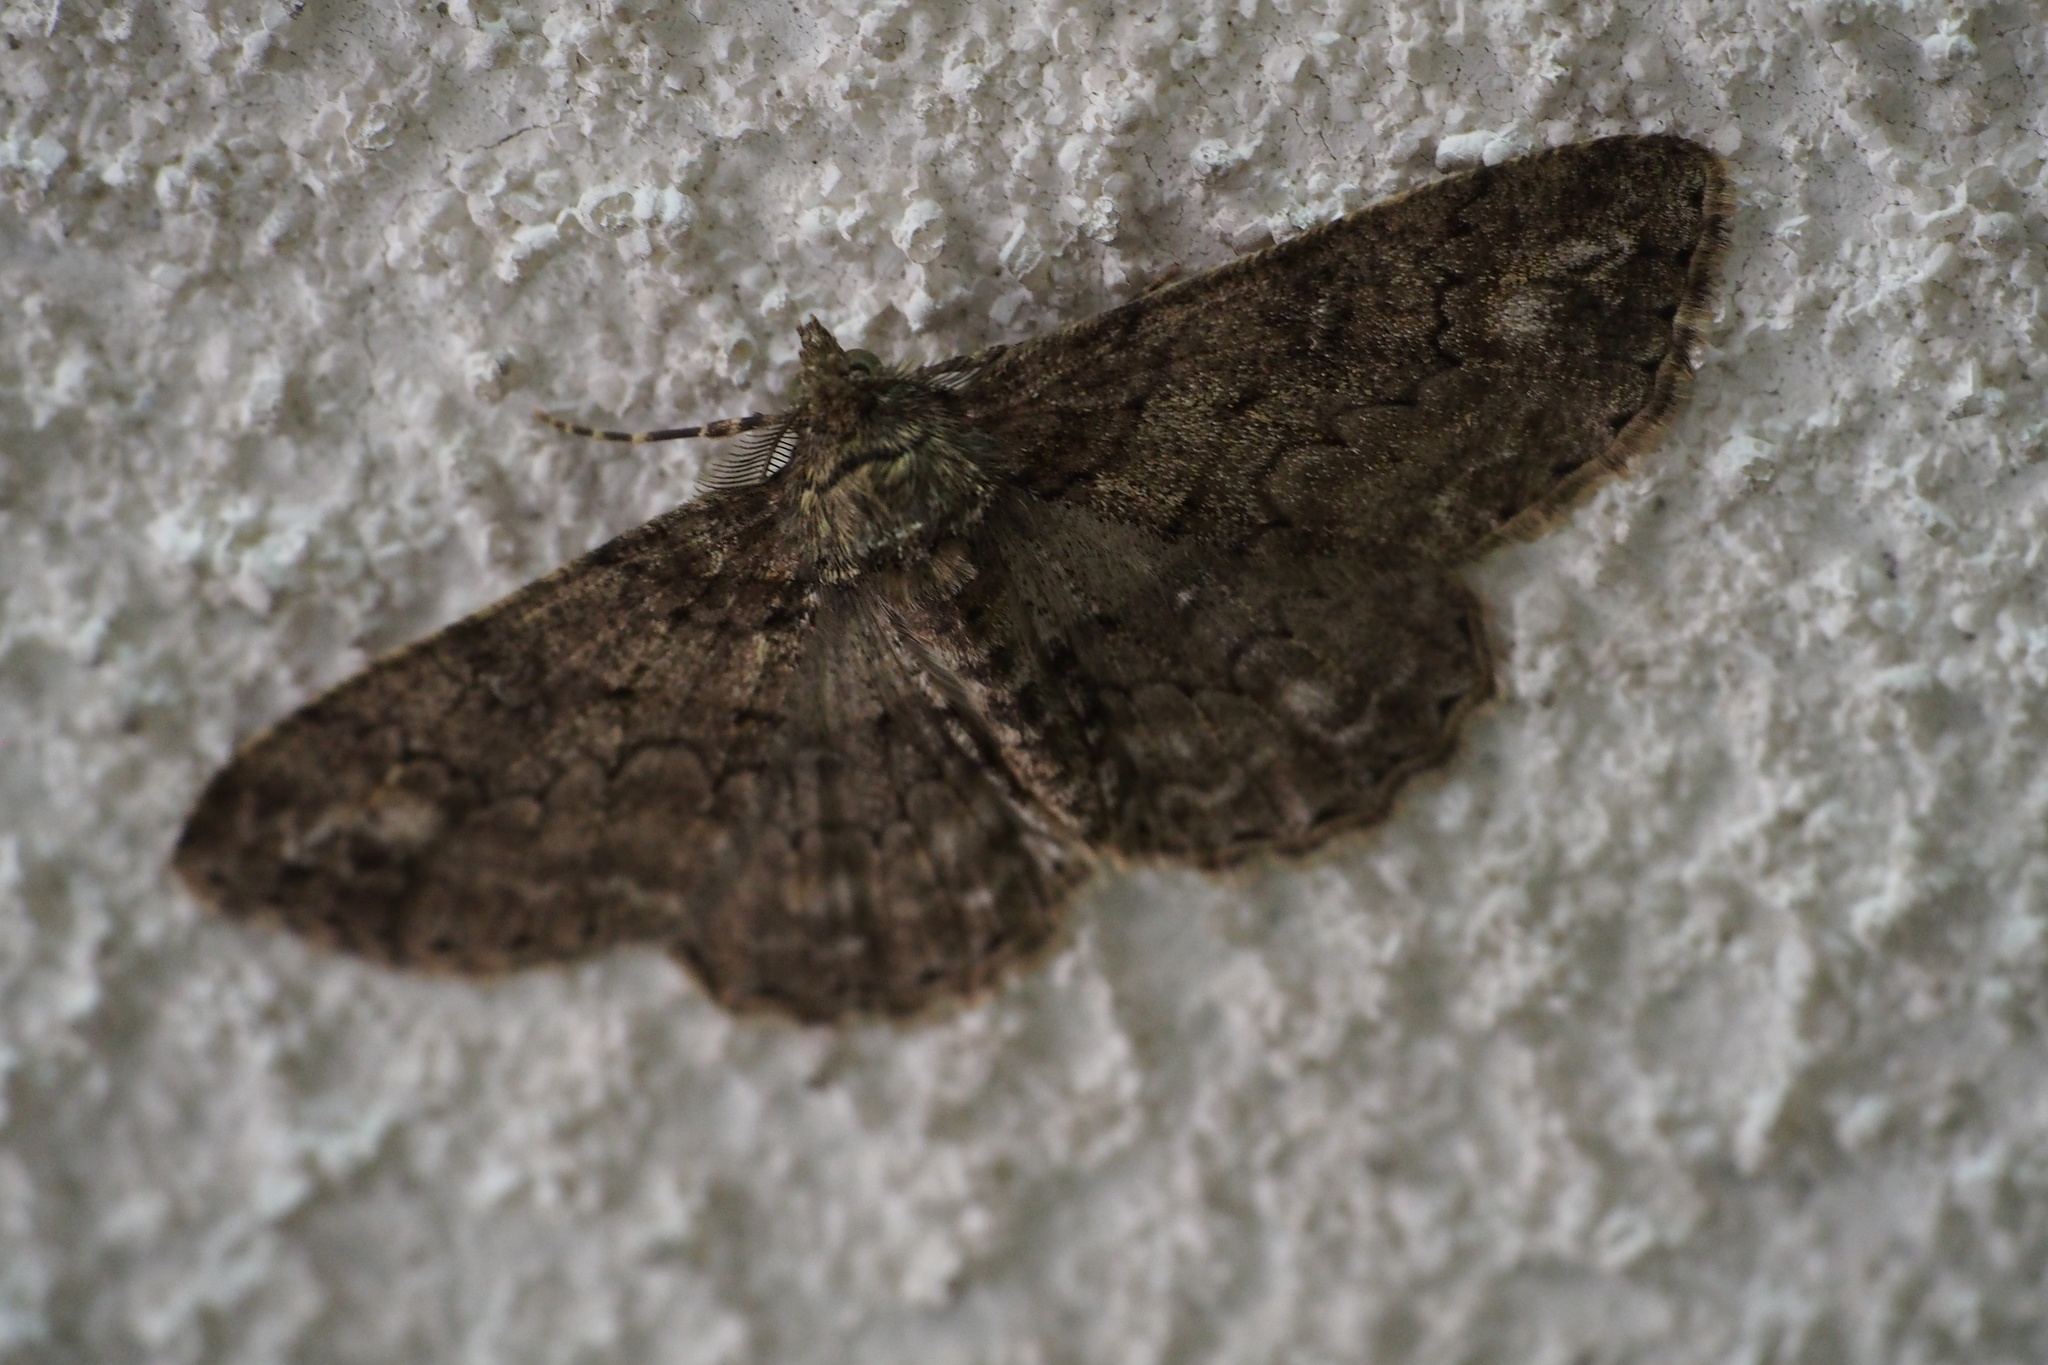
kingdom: Animalia
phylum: Arthropoda
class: Insecta
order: Lepidoptera
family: Geometridae
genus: Cleora
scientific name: Cleora leucophaea
